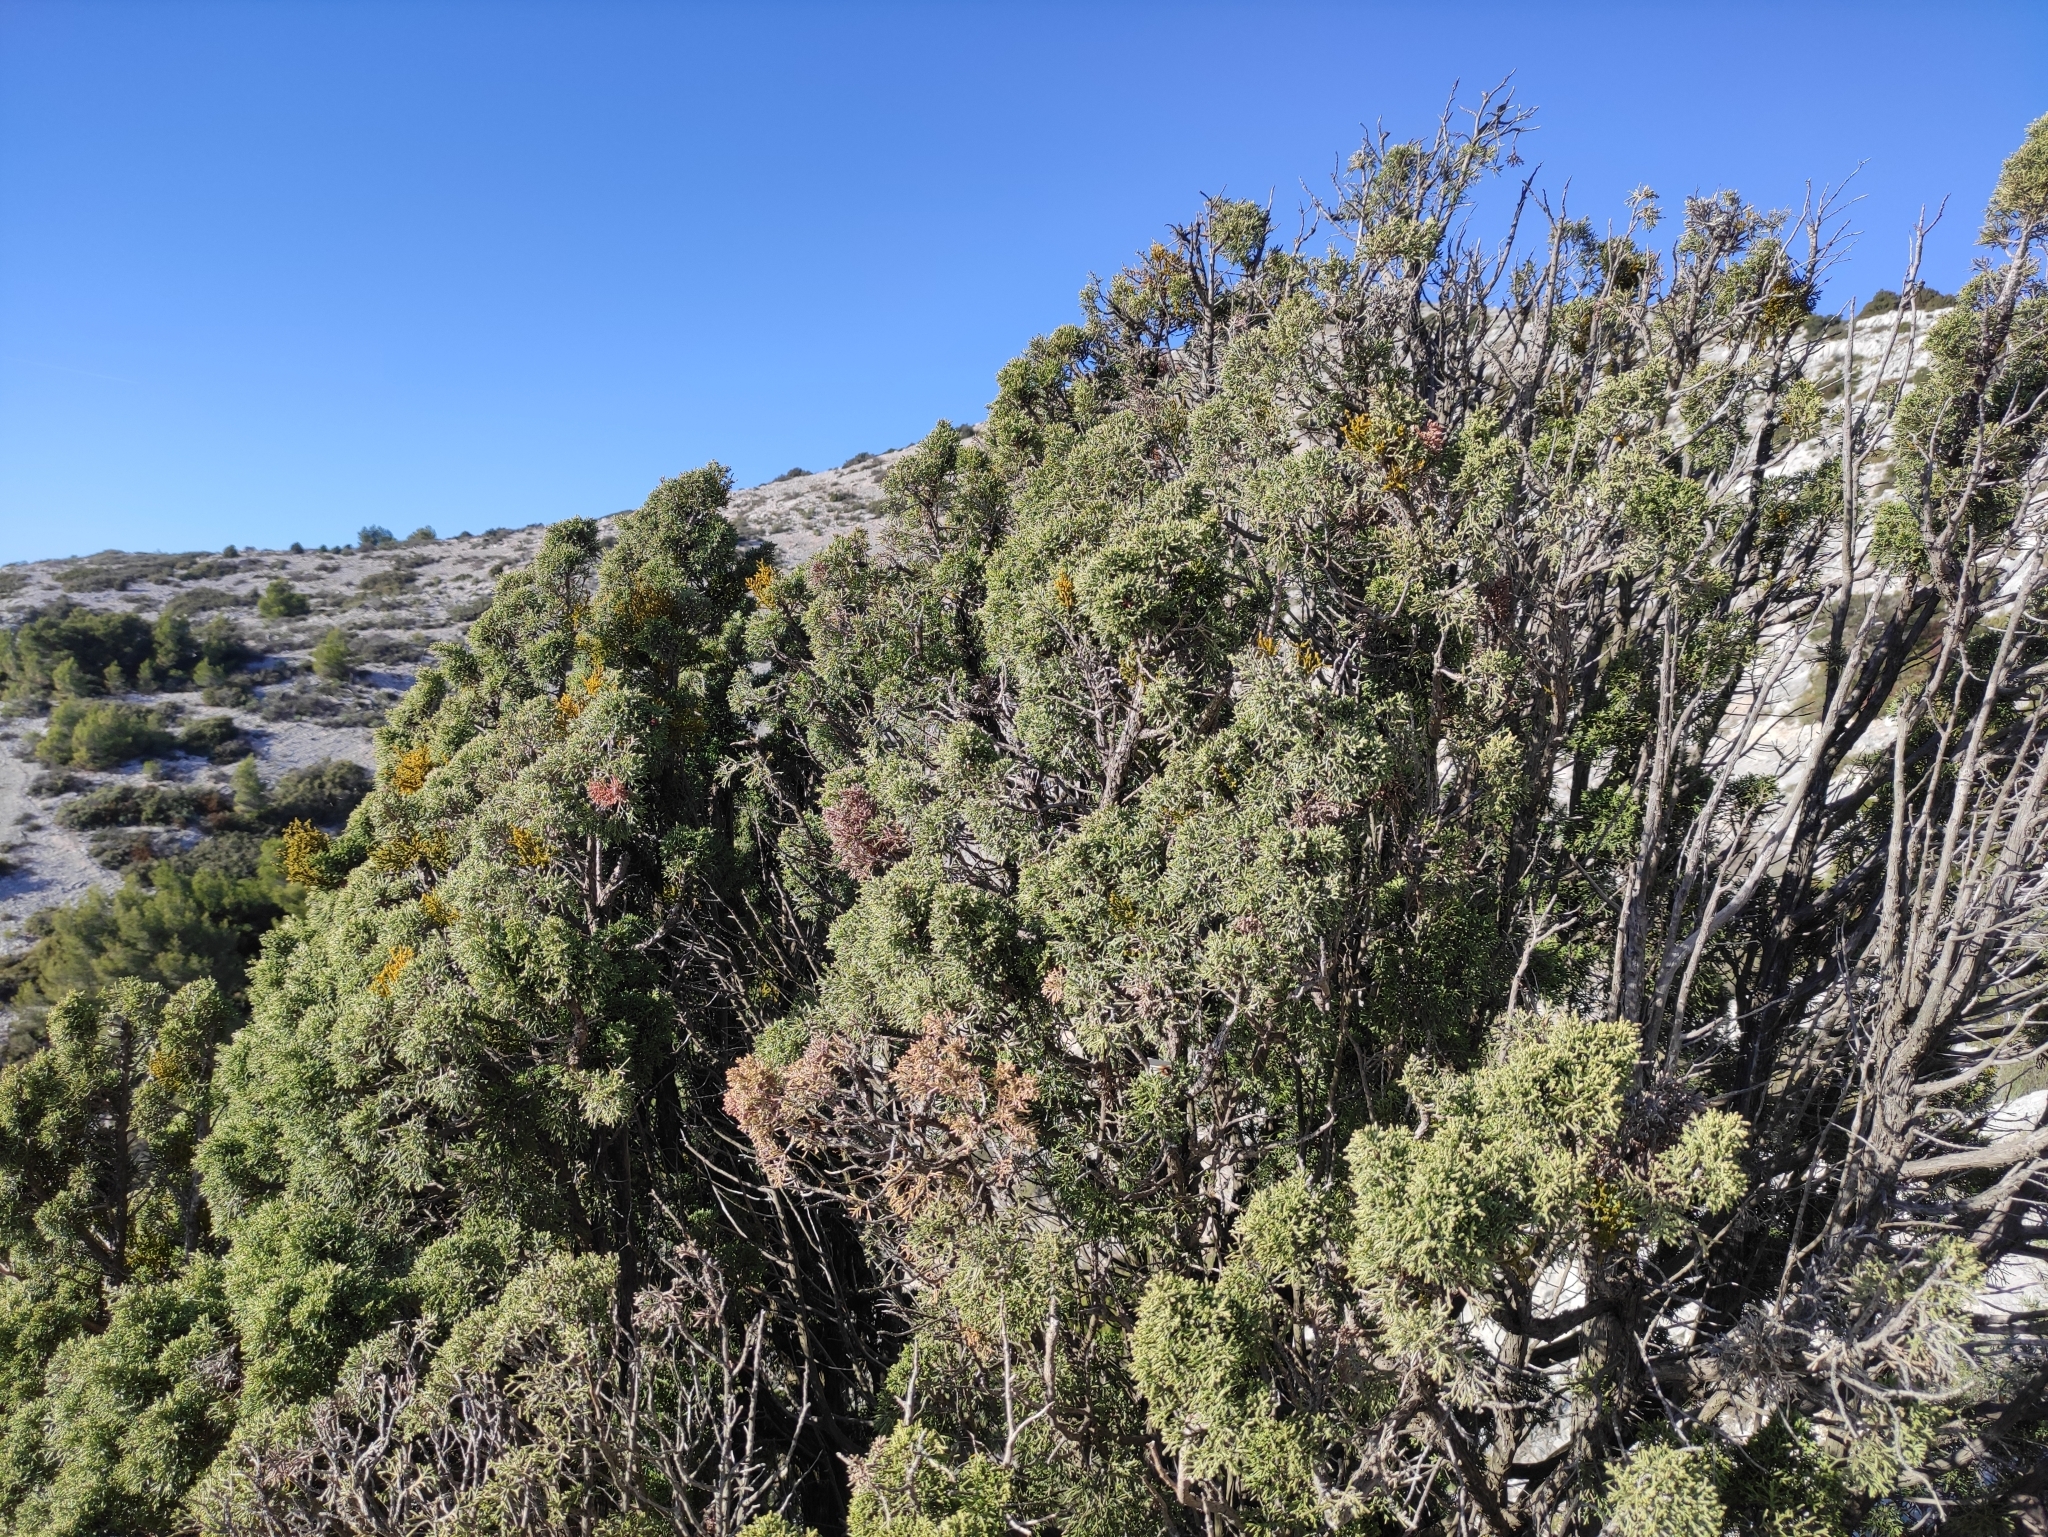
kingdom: Plantae
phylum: Tracheophyta
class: Pinopsida
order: Pinales
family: Cupressaceae
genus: Juniperus
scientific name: Juniperus phoenicea
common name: Phoenician juniper
